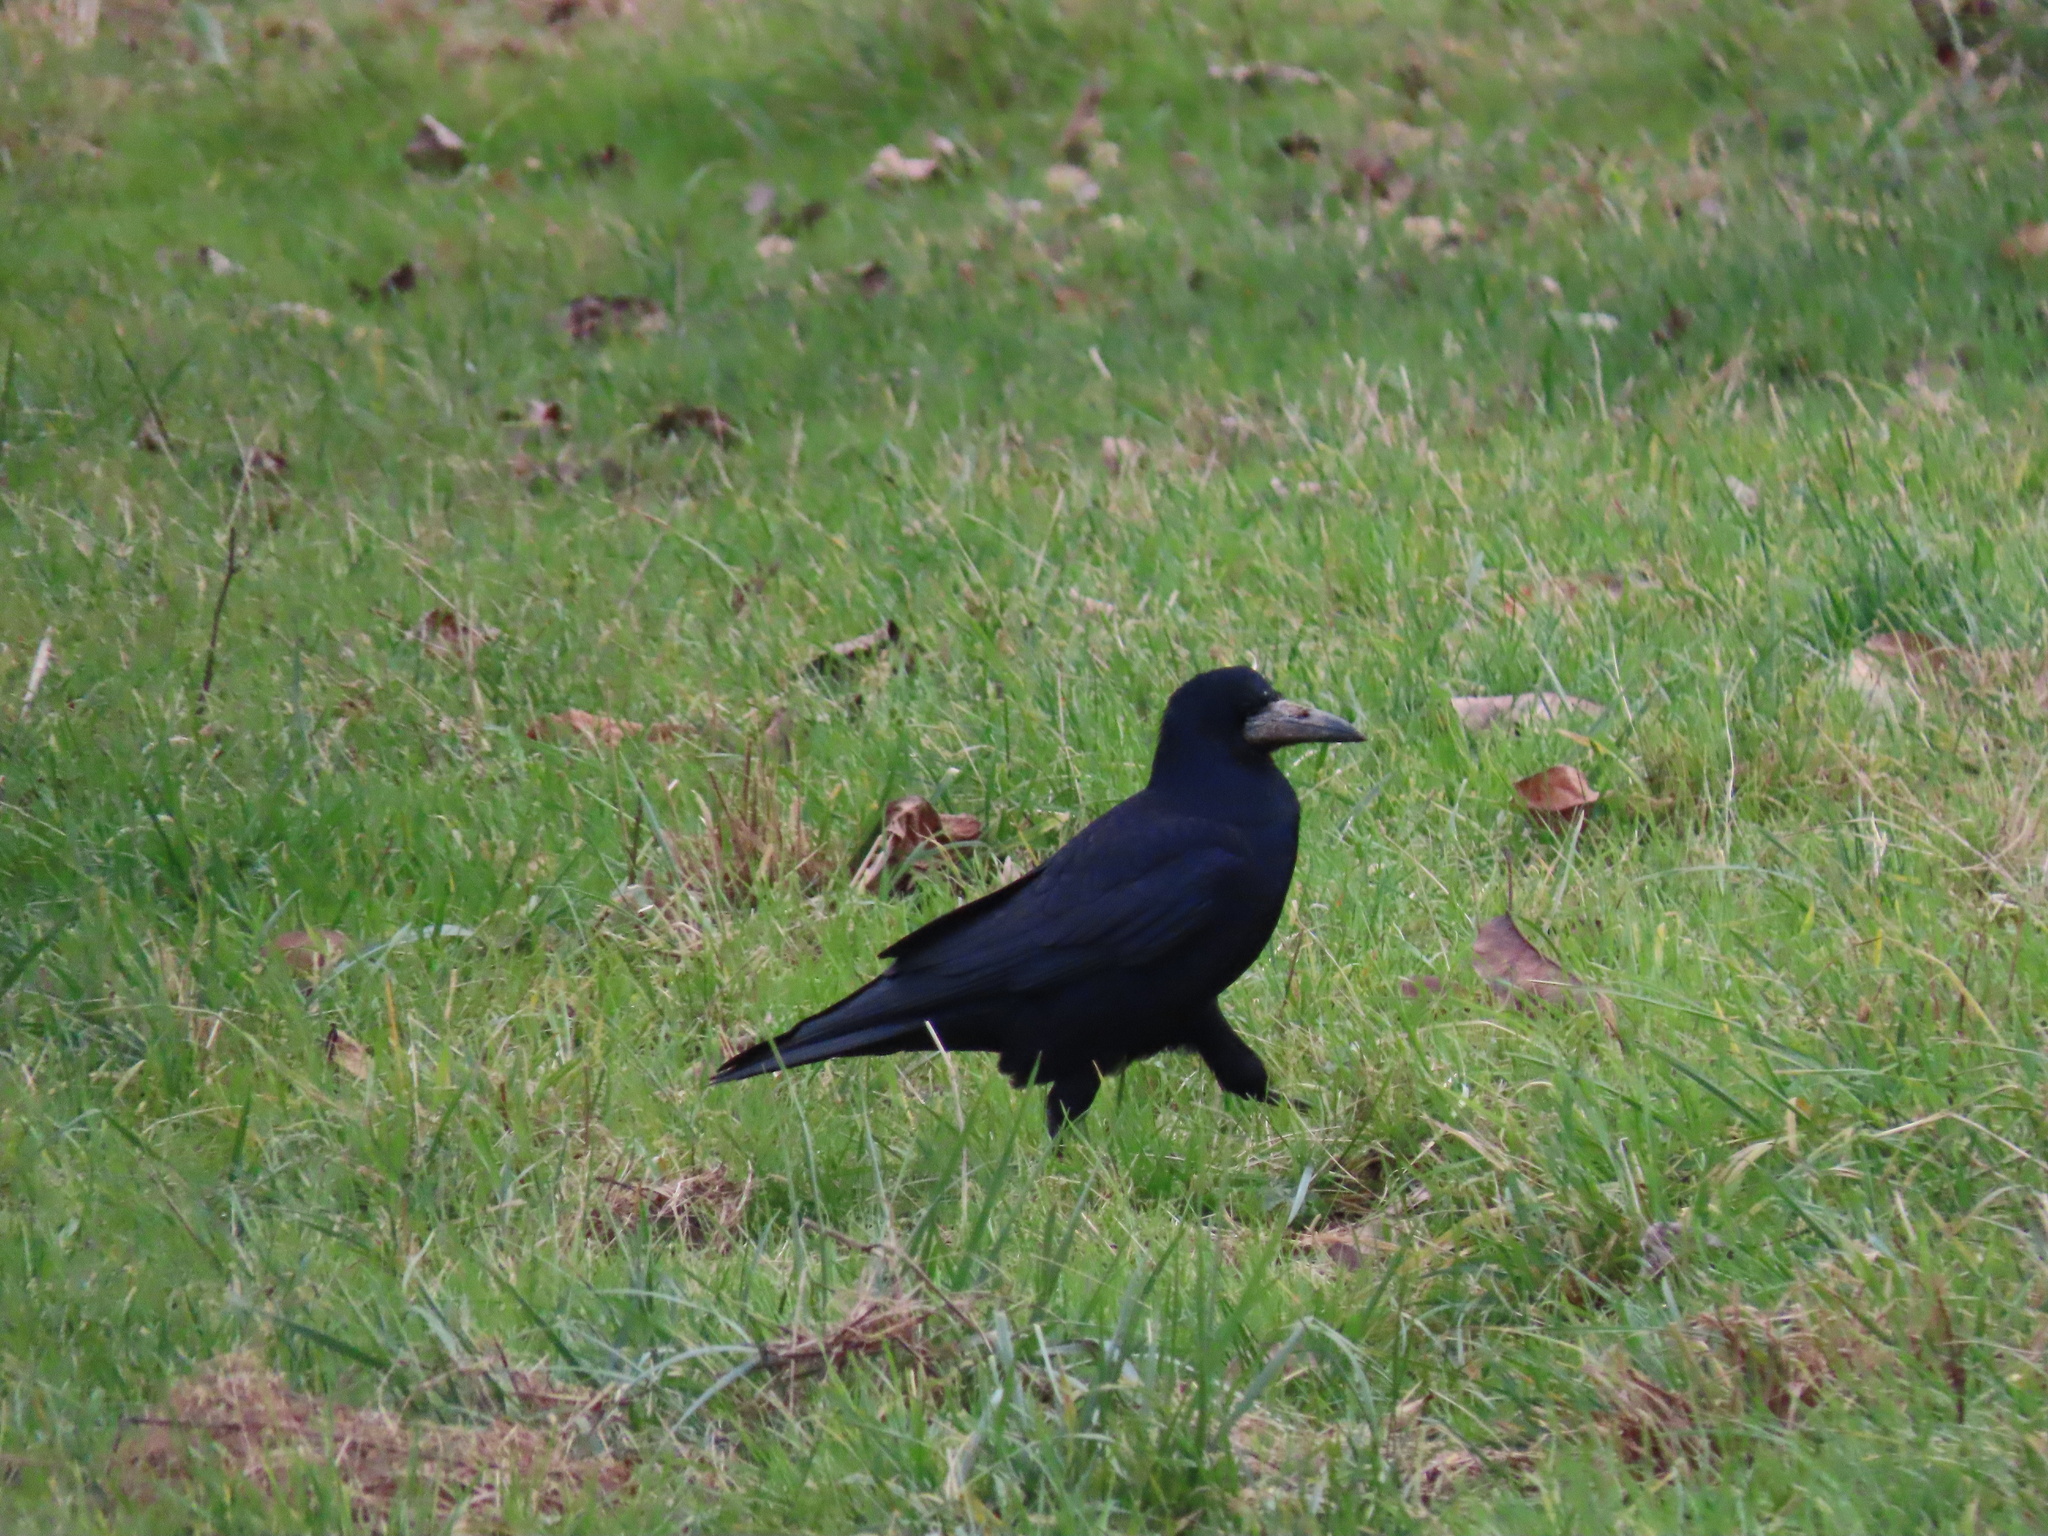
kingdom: Animalia
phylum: Chordata
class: Aves
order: Passeriformes
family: Corvidae
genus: Corvus
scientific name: Corvus frugilegus
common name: Rook
